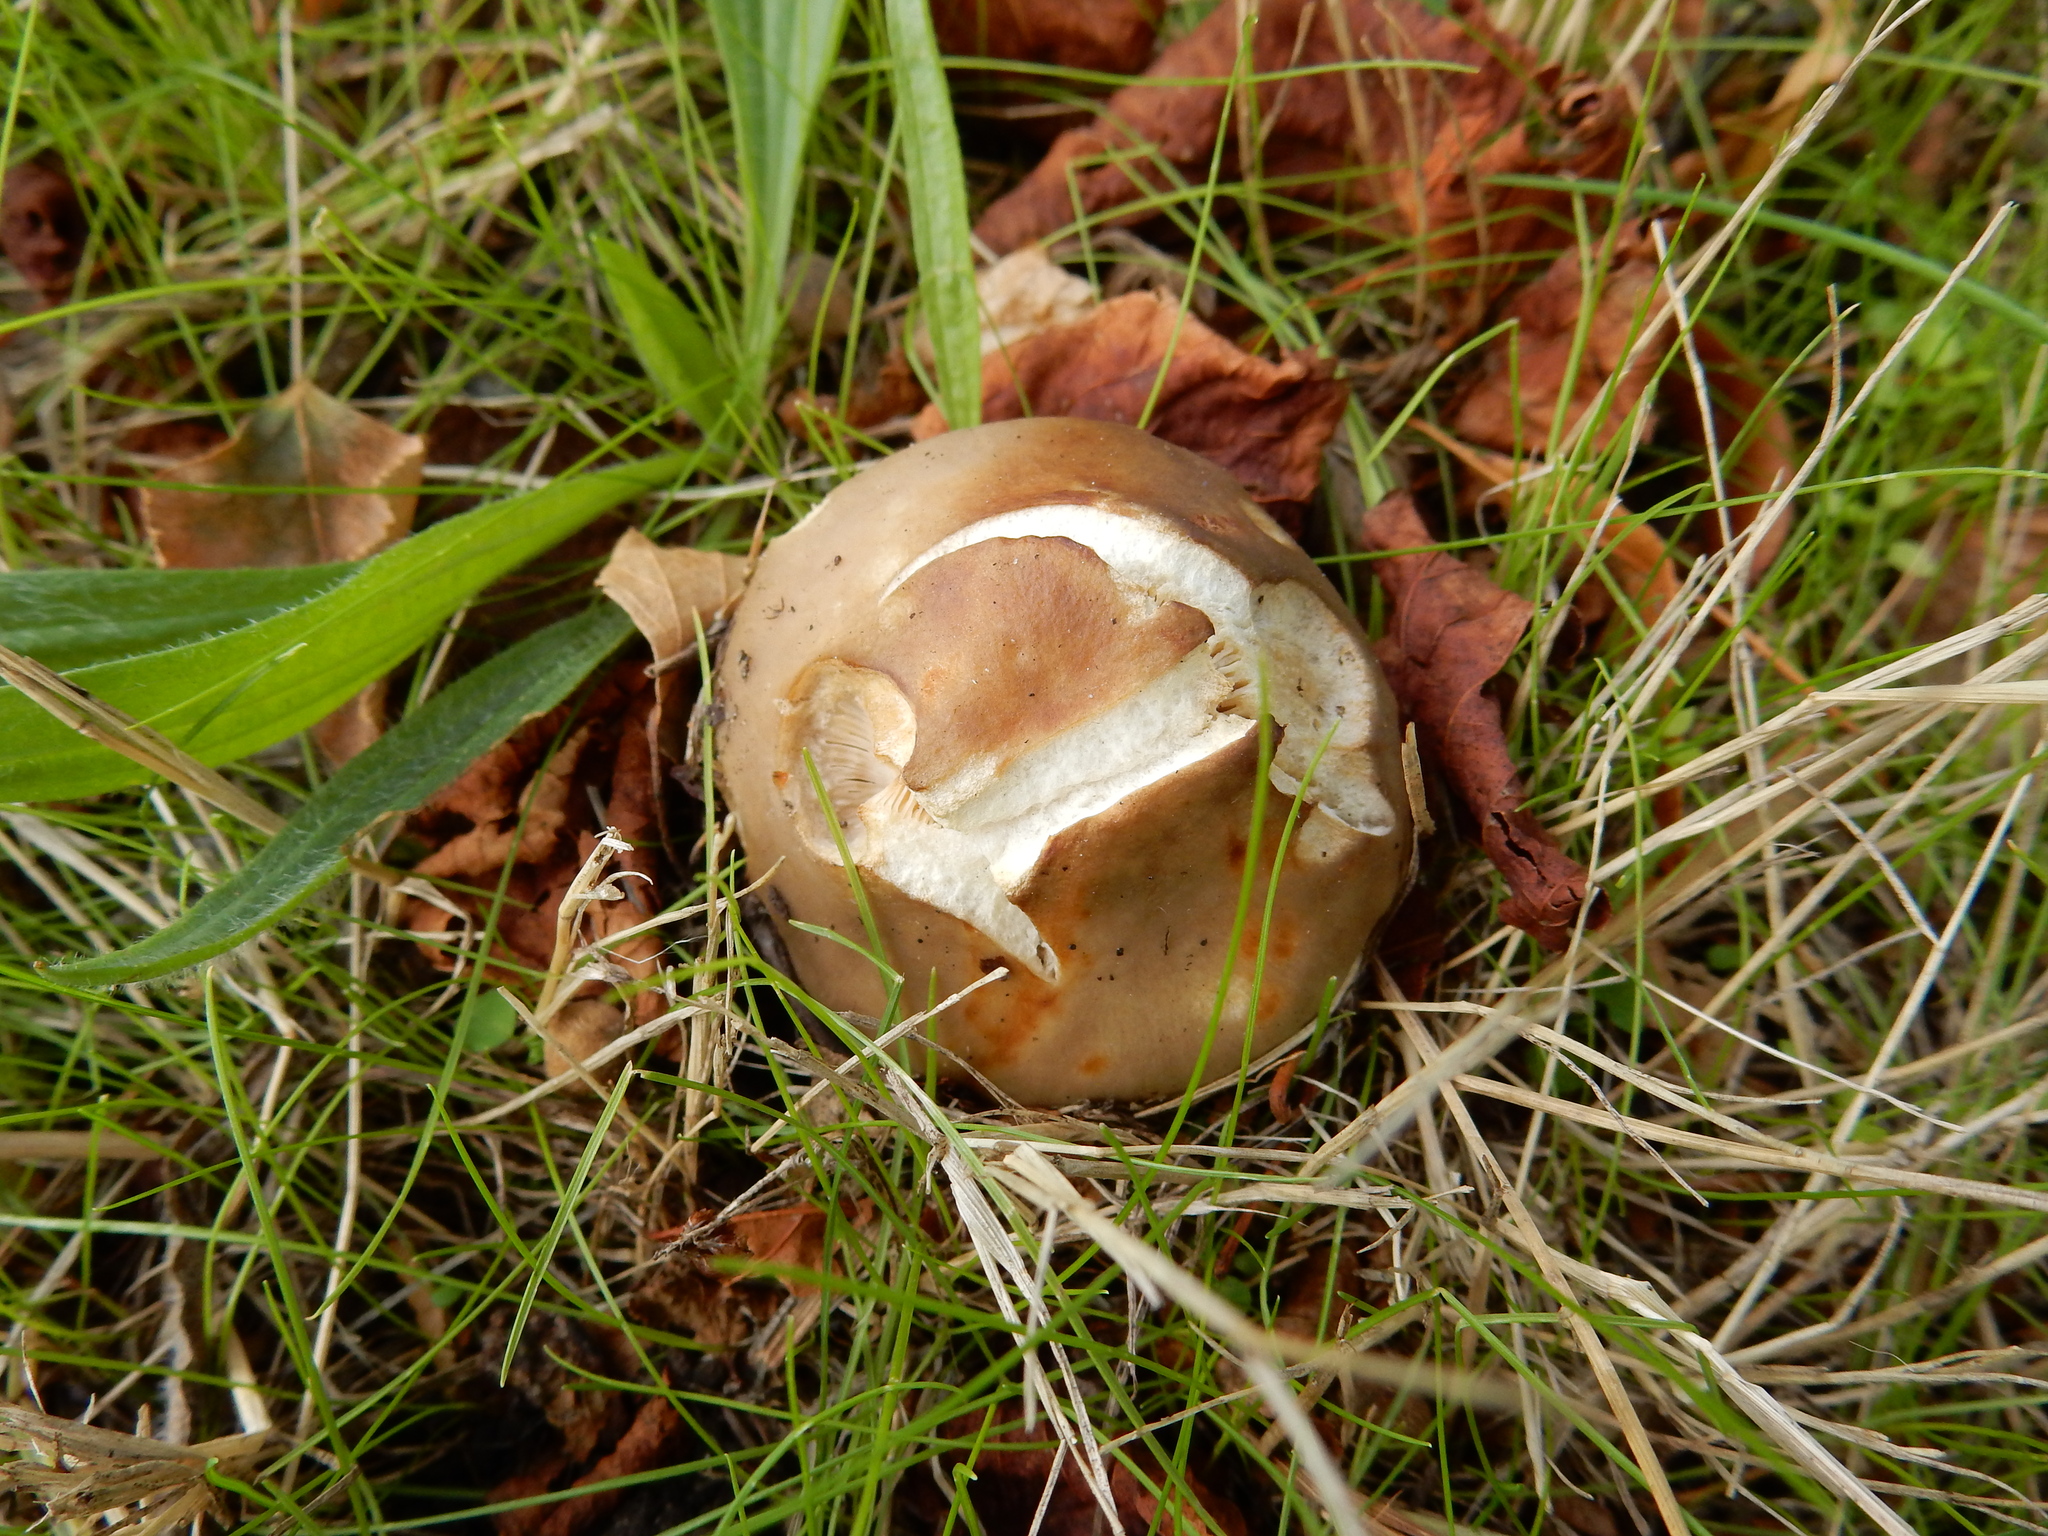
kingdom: Fungi
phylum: Basidiomycota
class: Agaricomycetes
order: Russulales
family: Russulaceae
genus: Russula
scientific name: Russula amoenolens
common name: Camembert brittlegill
